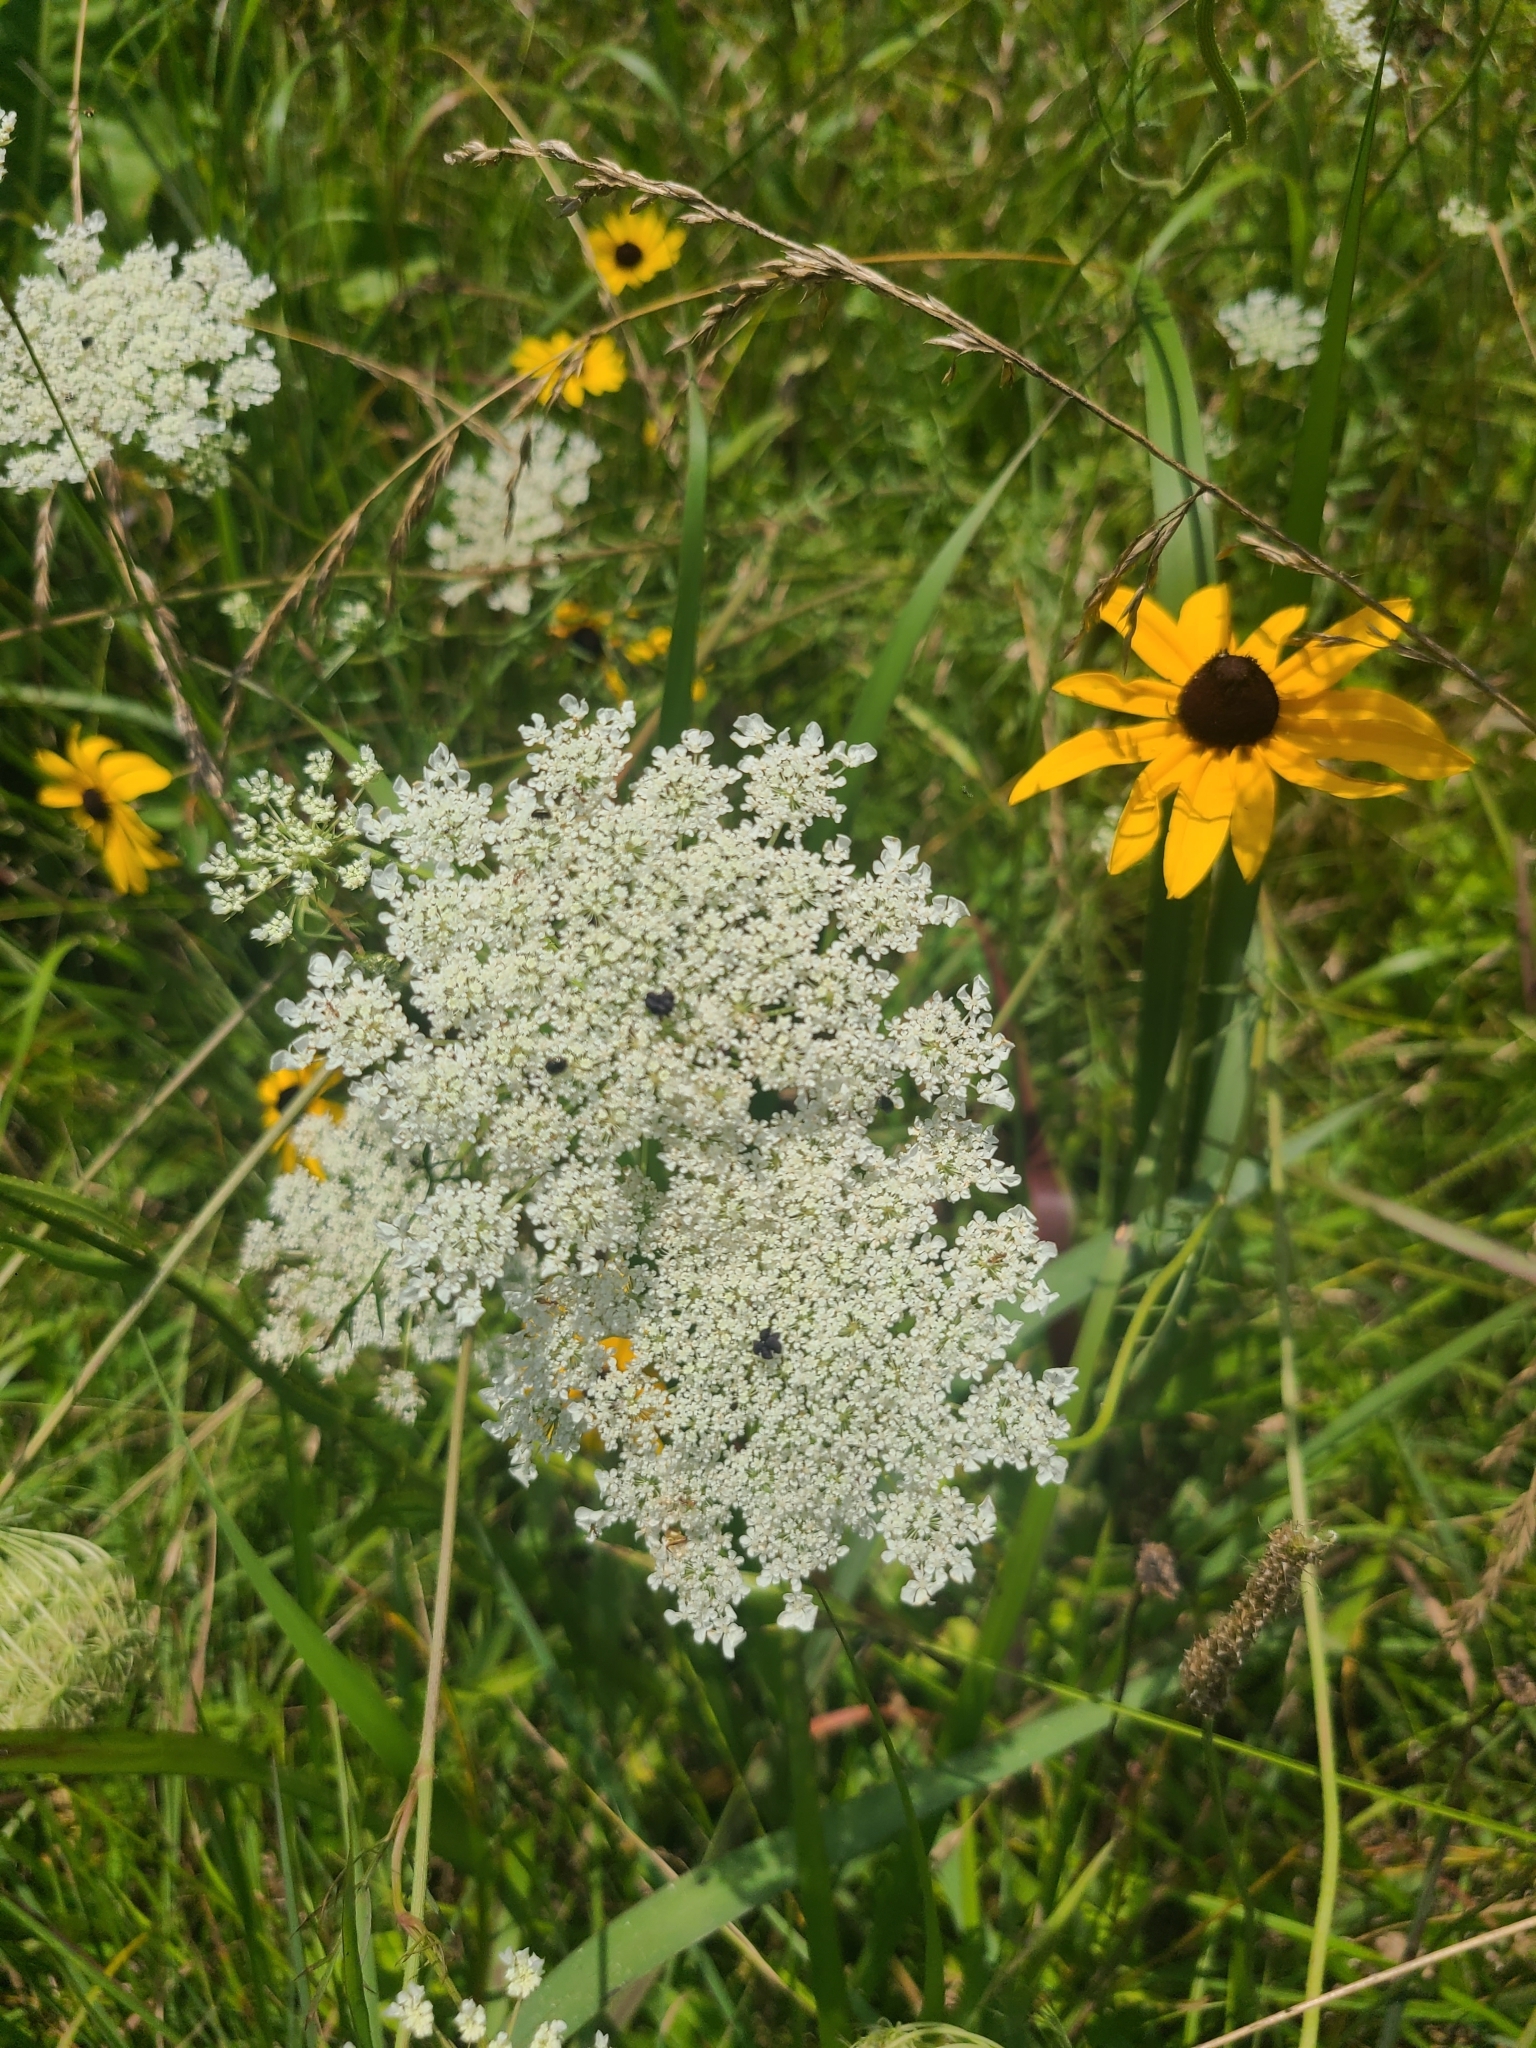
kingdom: Plantae
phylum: Tracheophyta
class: Magnoliopsida
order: Apiales
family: Apiaceae
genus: Daucus
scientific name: Daucus carota
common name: Wild carrot
